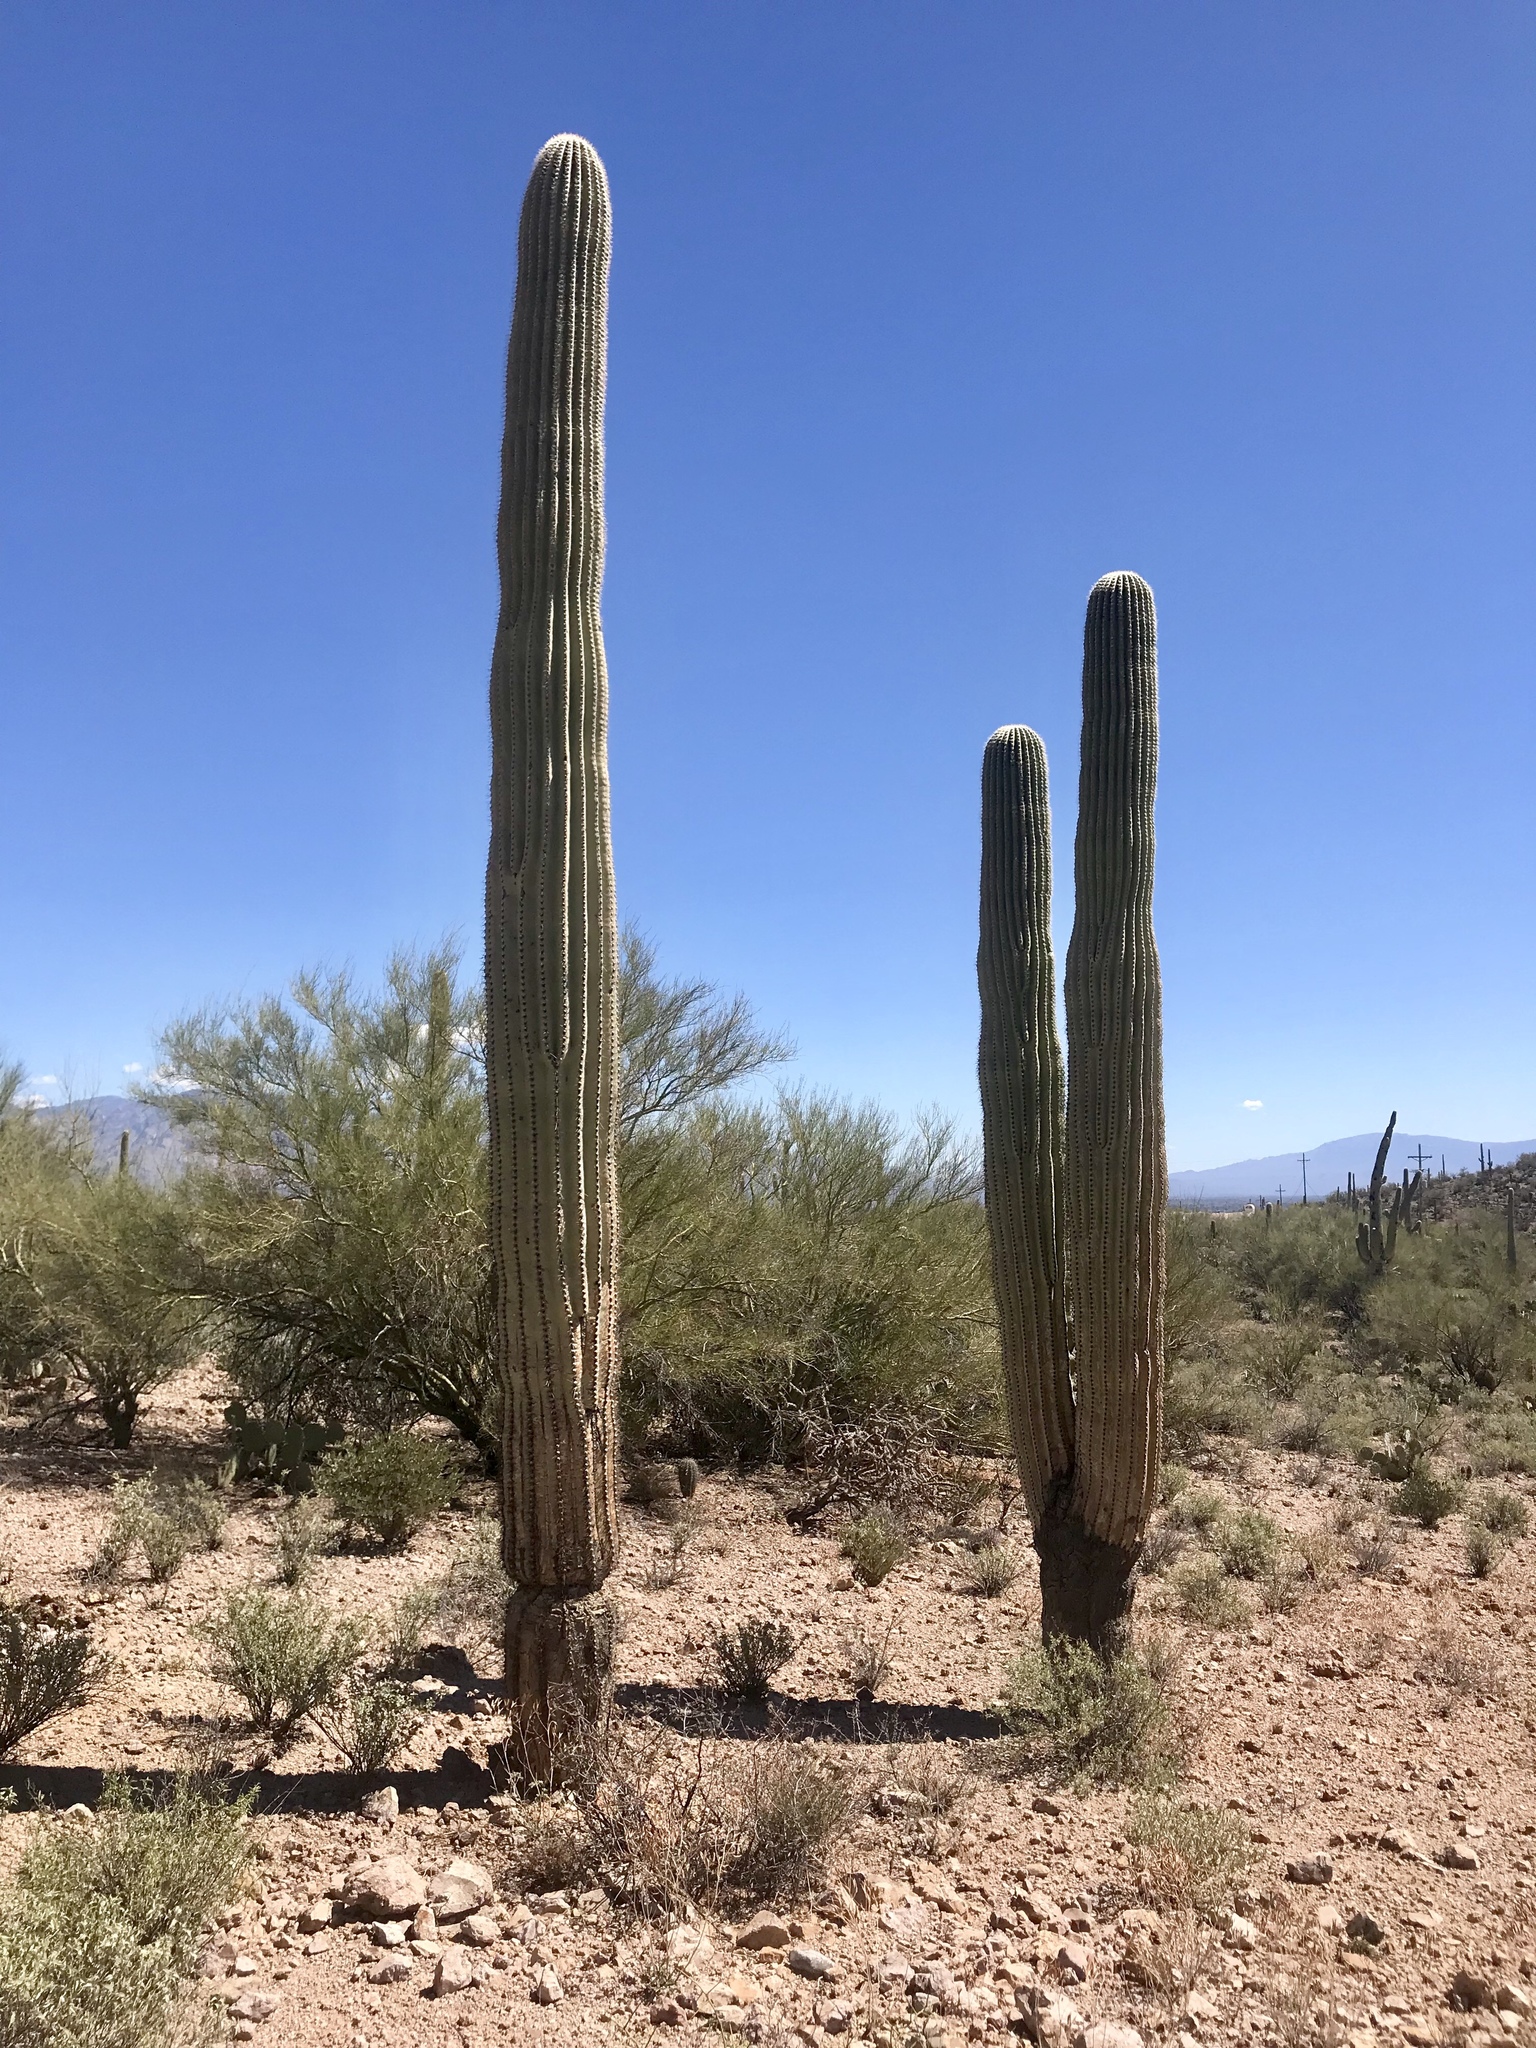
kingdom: Plantae
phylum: Tracheophyta
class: Magnoliopsida
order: Caryophyllales
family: Cactaceae
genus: Carnegiea
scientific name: Carnegiea gigantea
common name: Saguaro
